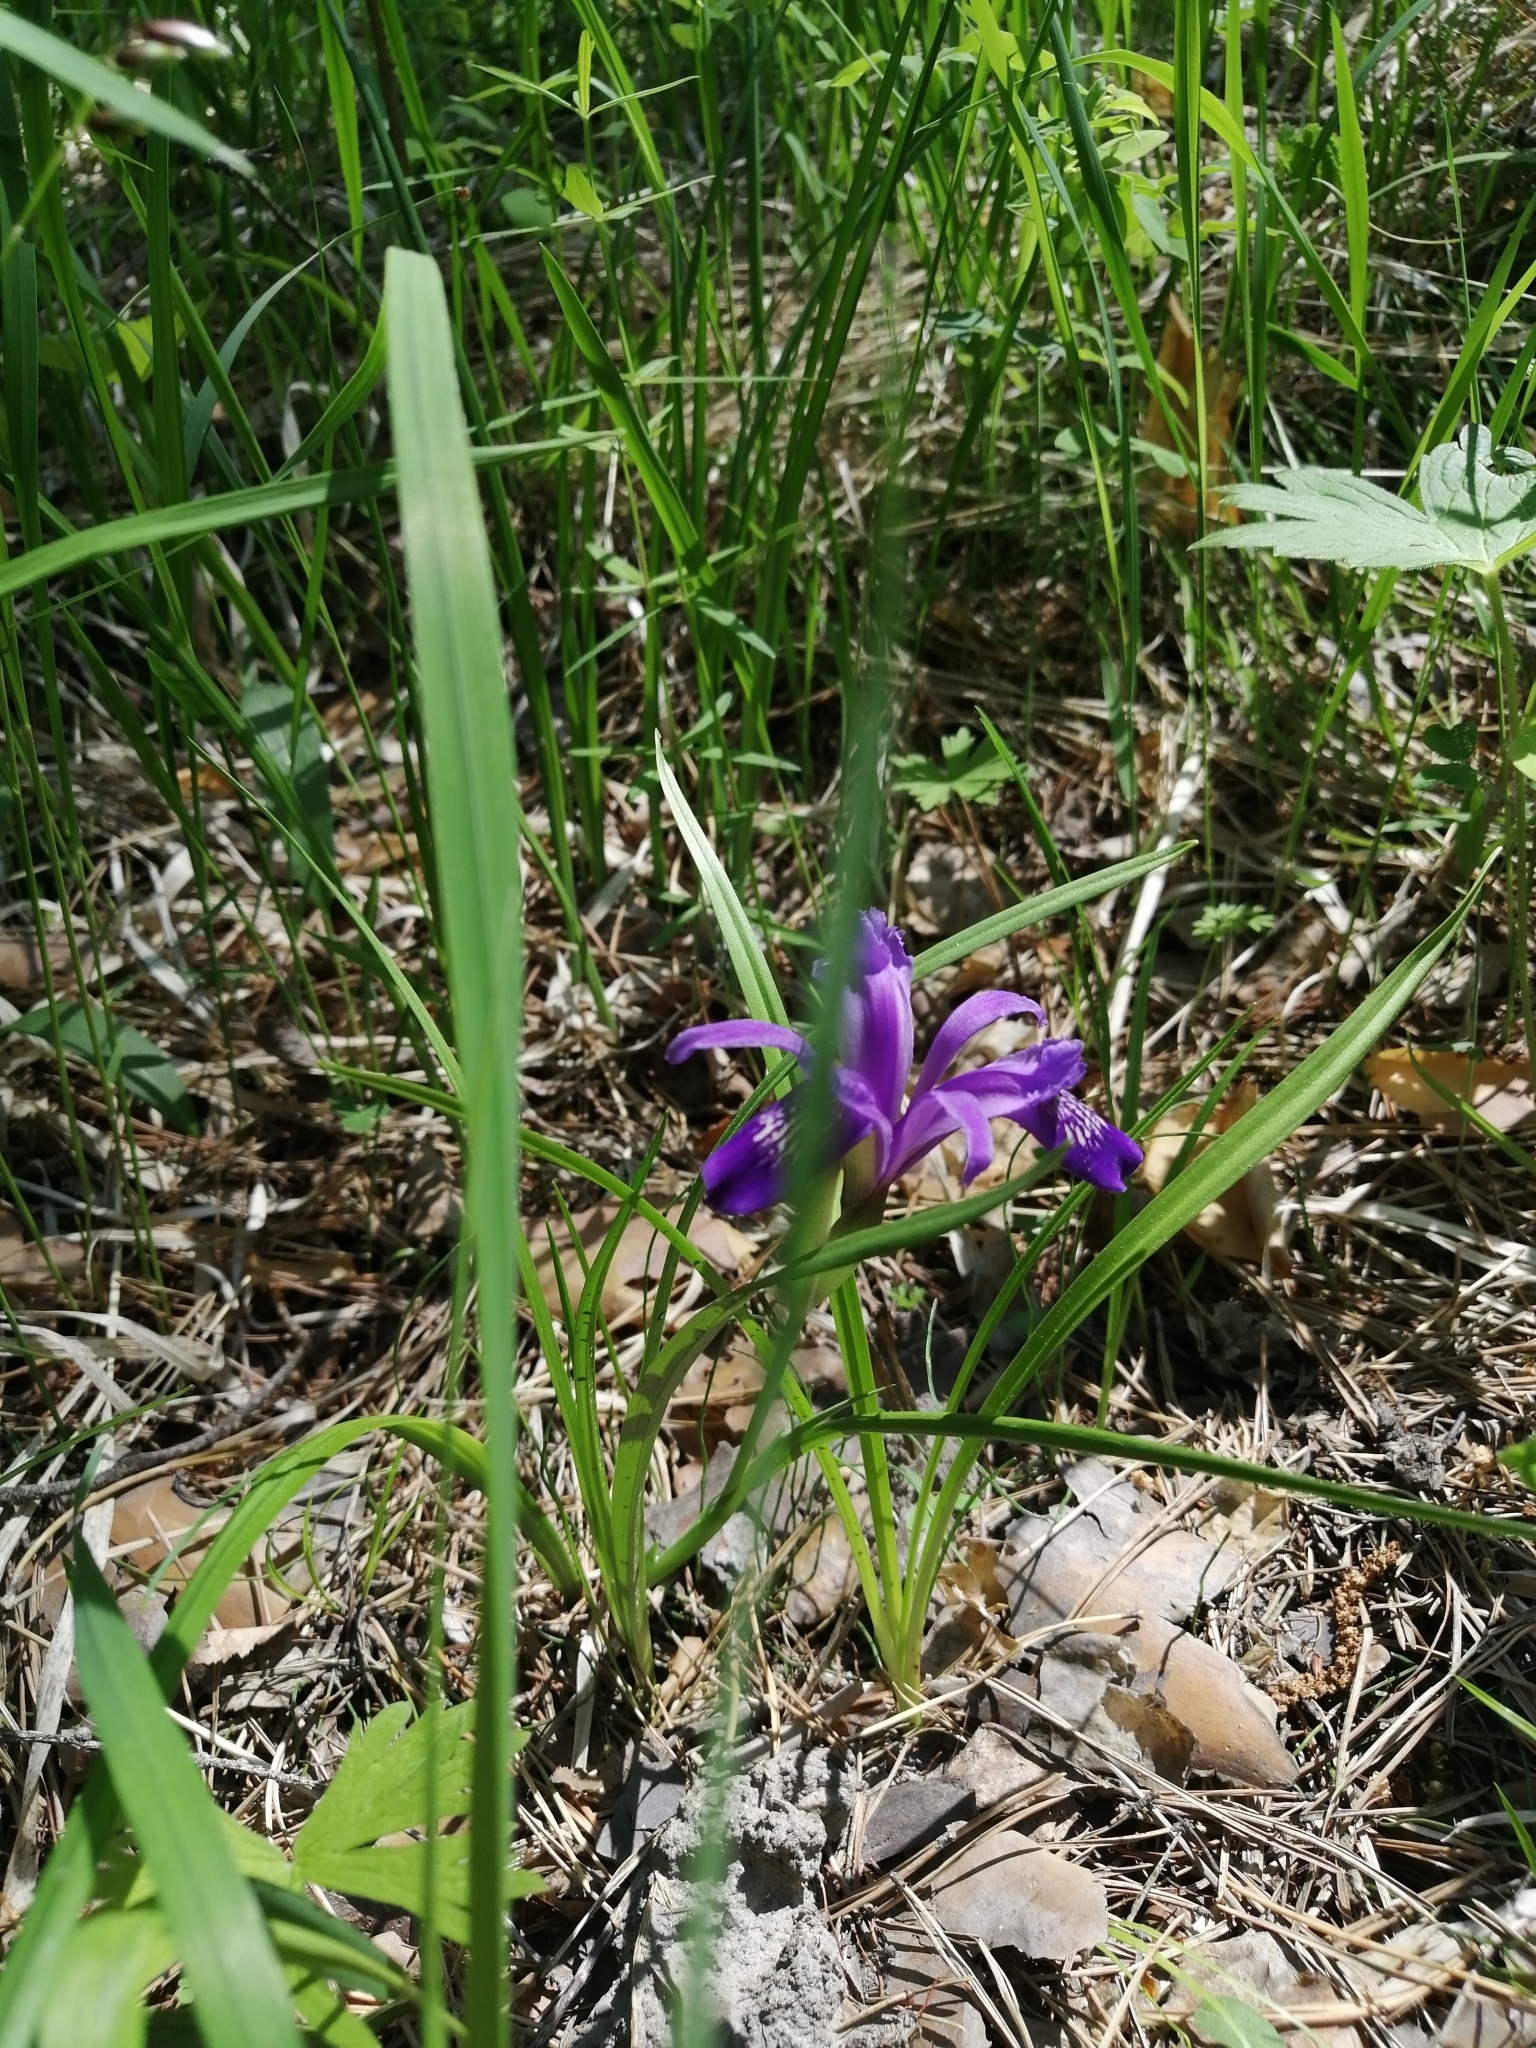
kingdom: Plantae
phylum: Tracheophyta
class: Liliopsida
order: Asparagales
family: Iridaceae
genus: Iris
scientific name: Iris ruthenica
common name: Purple-bract iris
